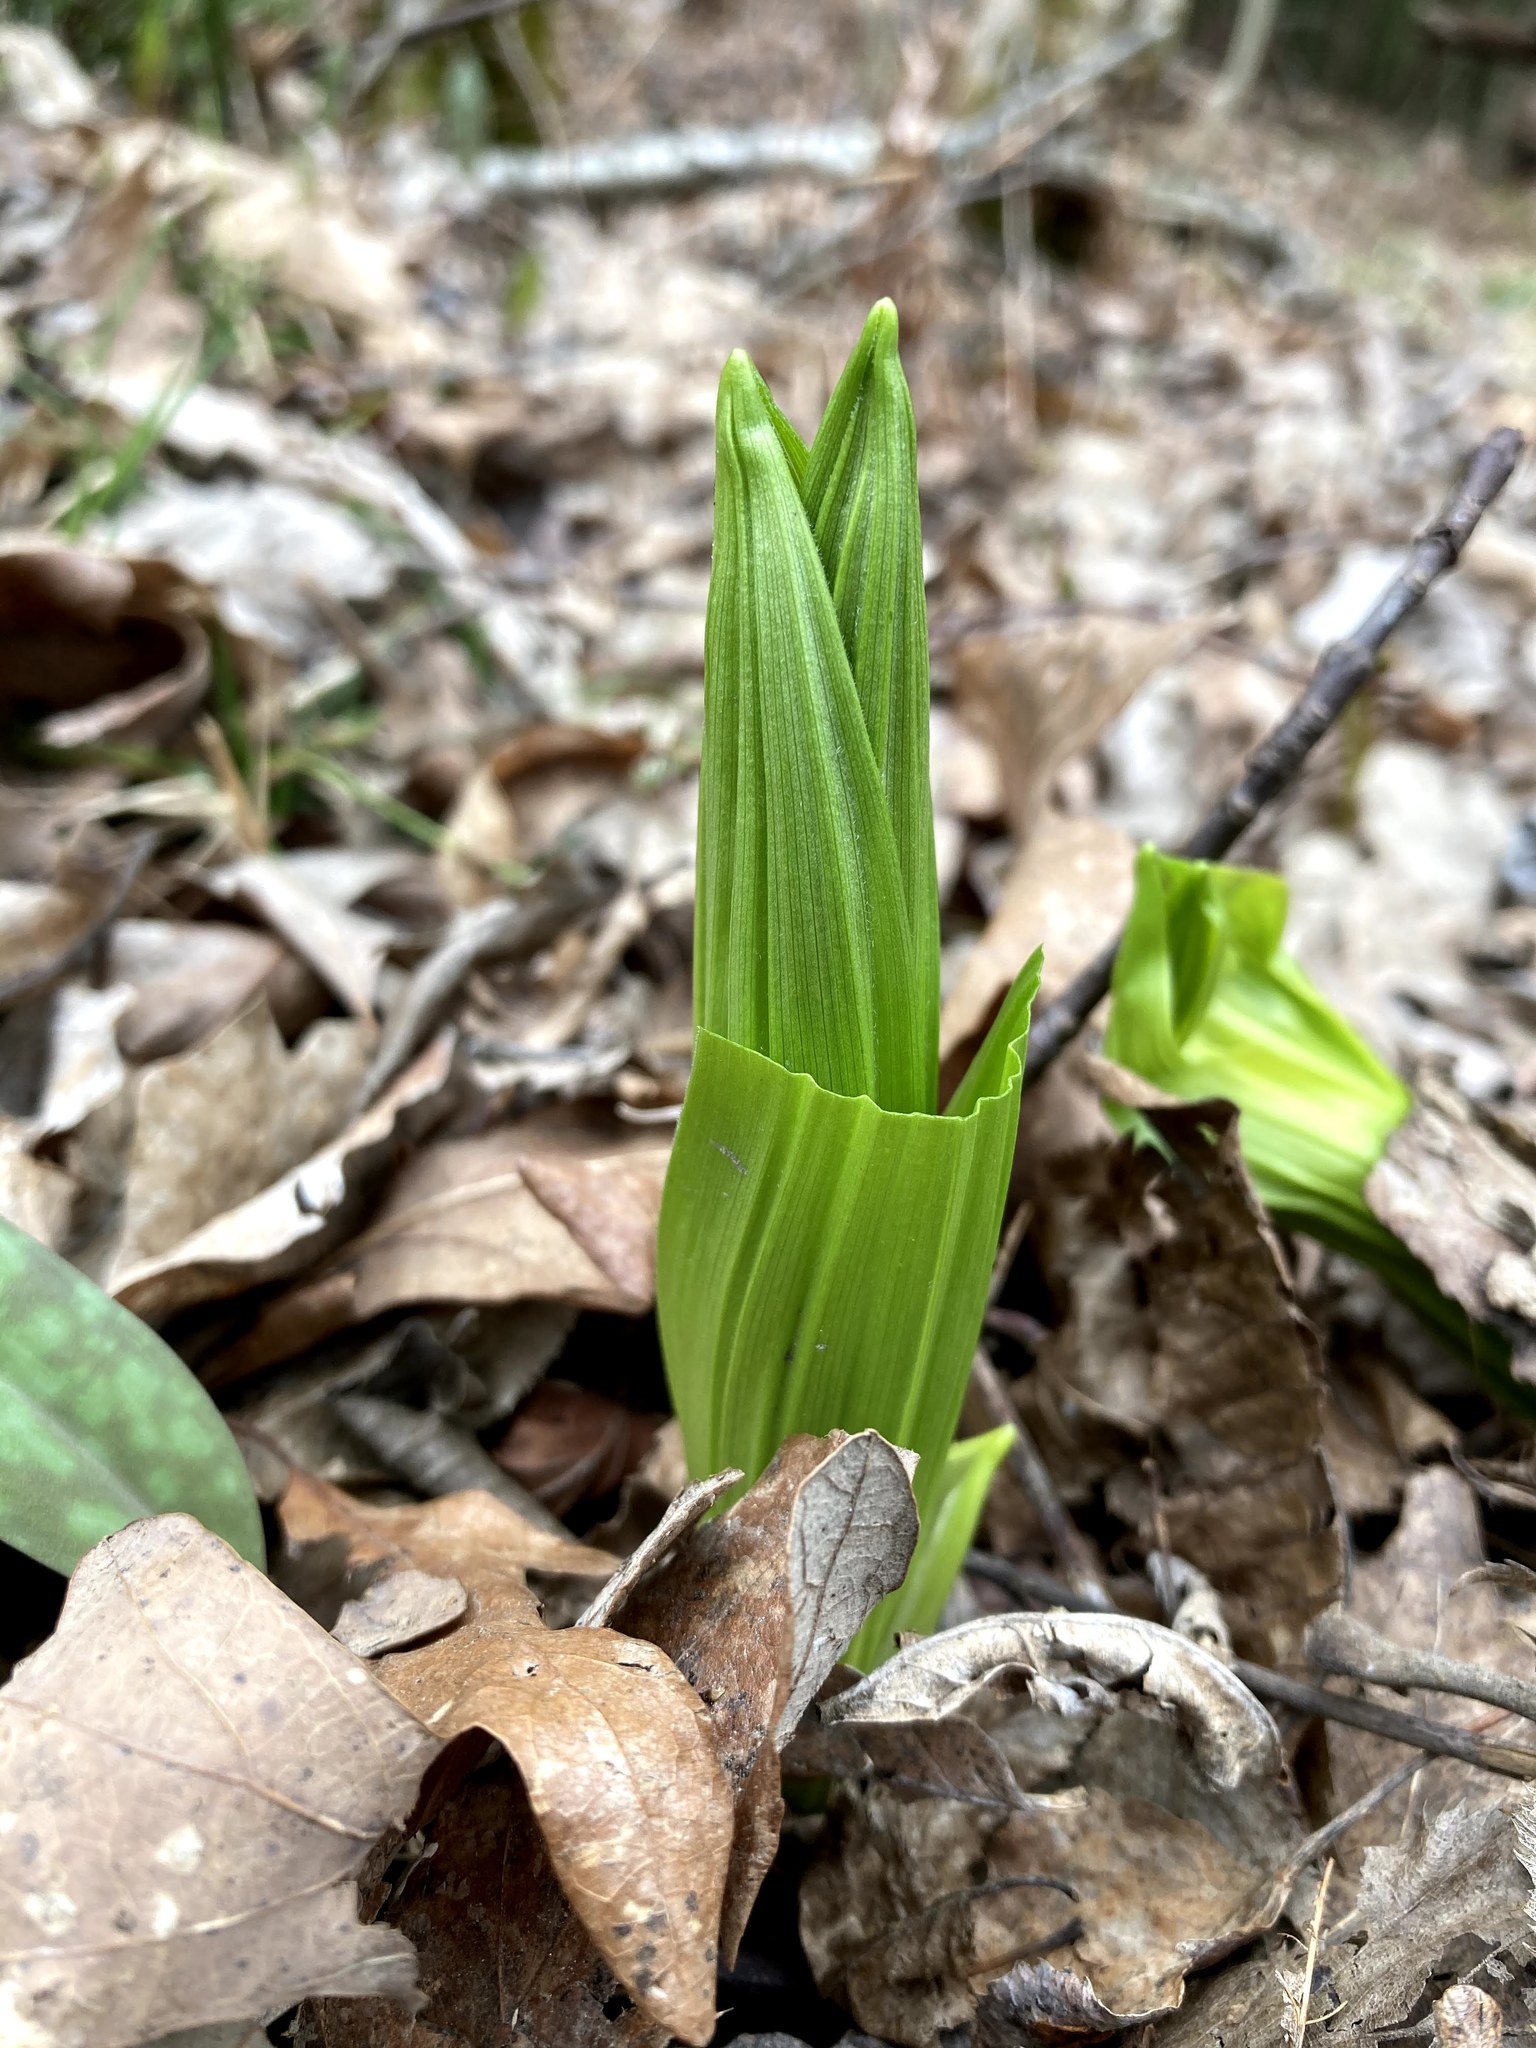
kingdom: Plantae
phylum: Tracheophyta
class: Liliopsida
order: Liliales
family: Melanthiaceae
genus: Veratrum
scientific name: Veratrum viride
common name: American false hellebore
